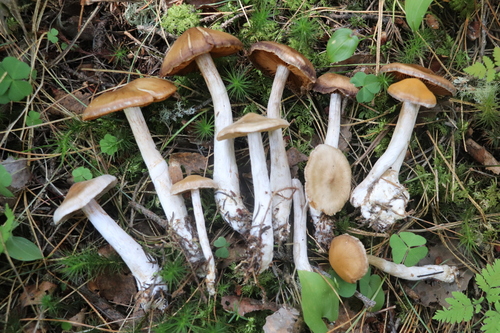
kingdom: Fungi
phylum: Basidiomycota
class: Agaricomycetes
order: Agaricales
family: Cortinariaceae
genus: Cortinarius
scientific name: Cortinarius saturninus
